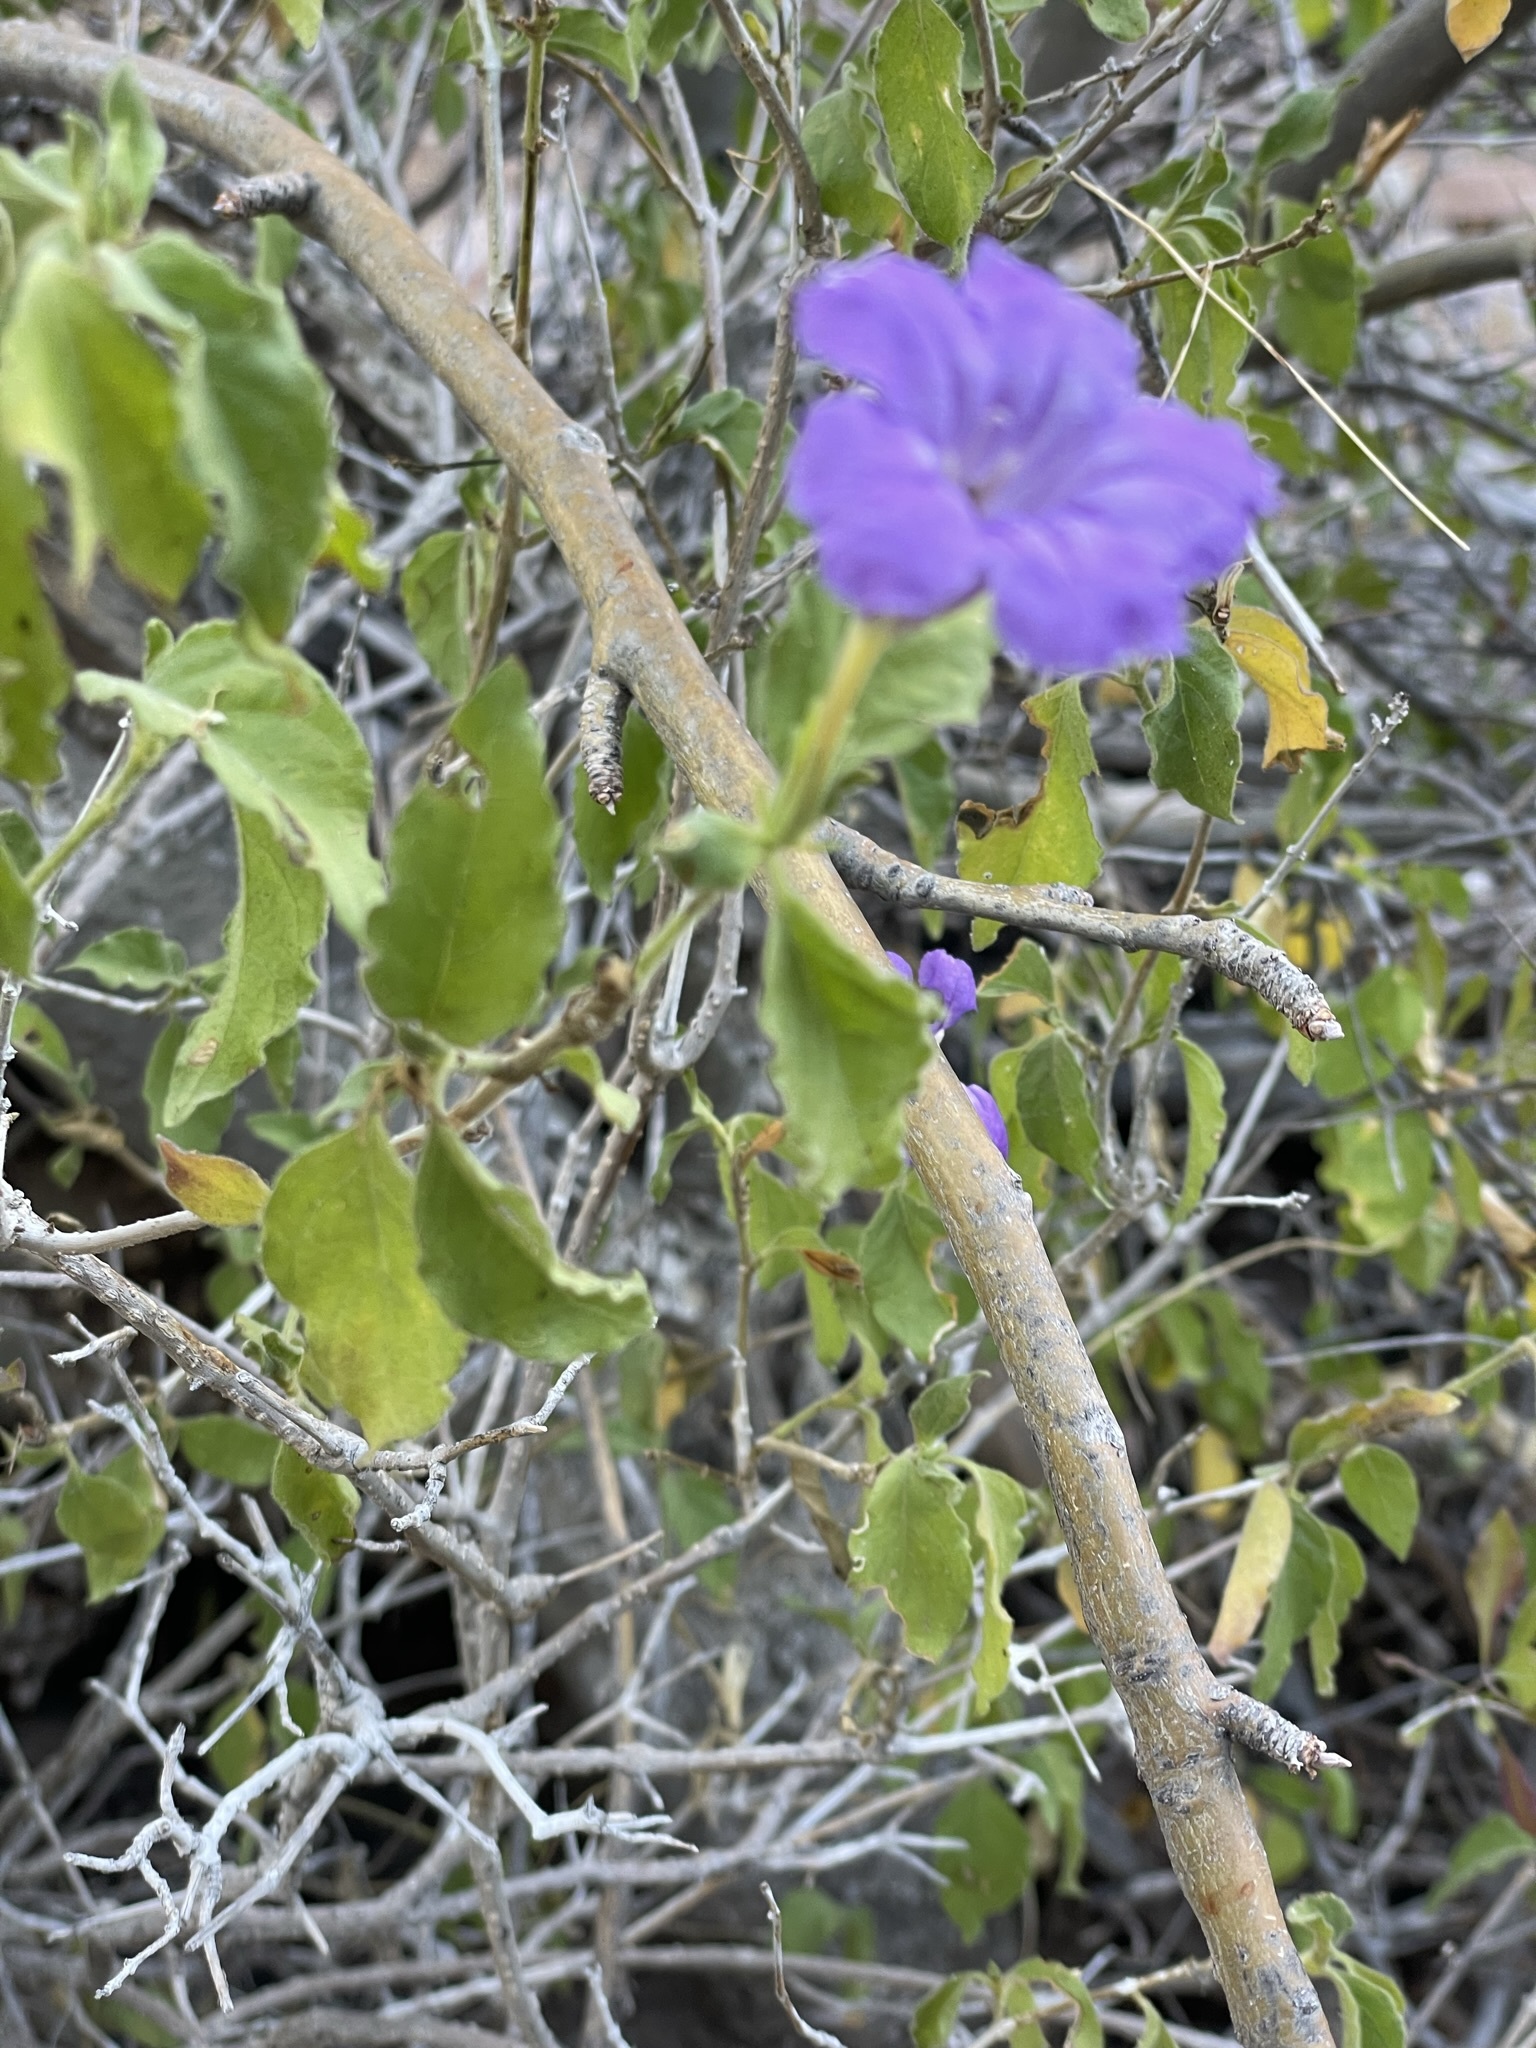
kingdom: Plantae
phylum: Tracheophyta
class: Magnoliopsida
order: Lamiales
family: Acanthaceae
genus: Ruellia
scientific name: Ruellia californica
